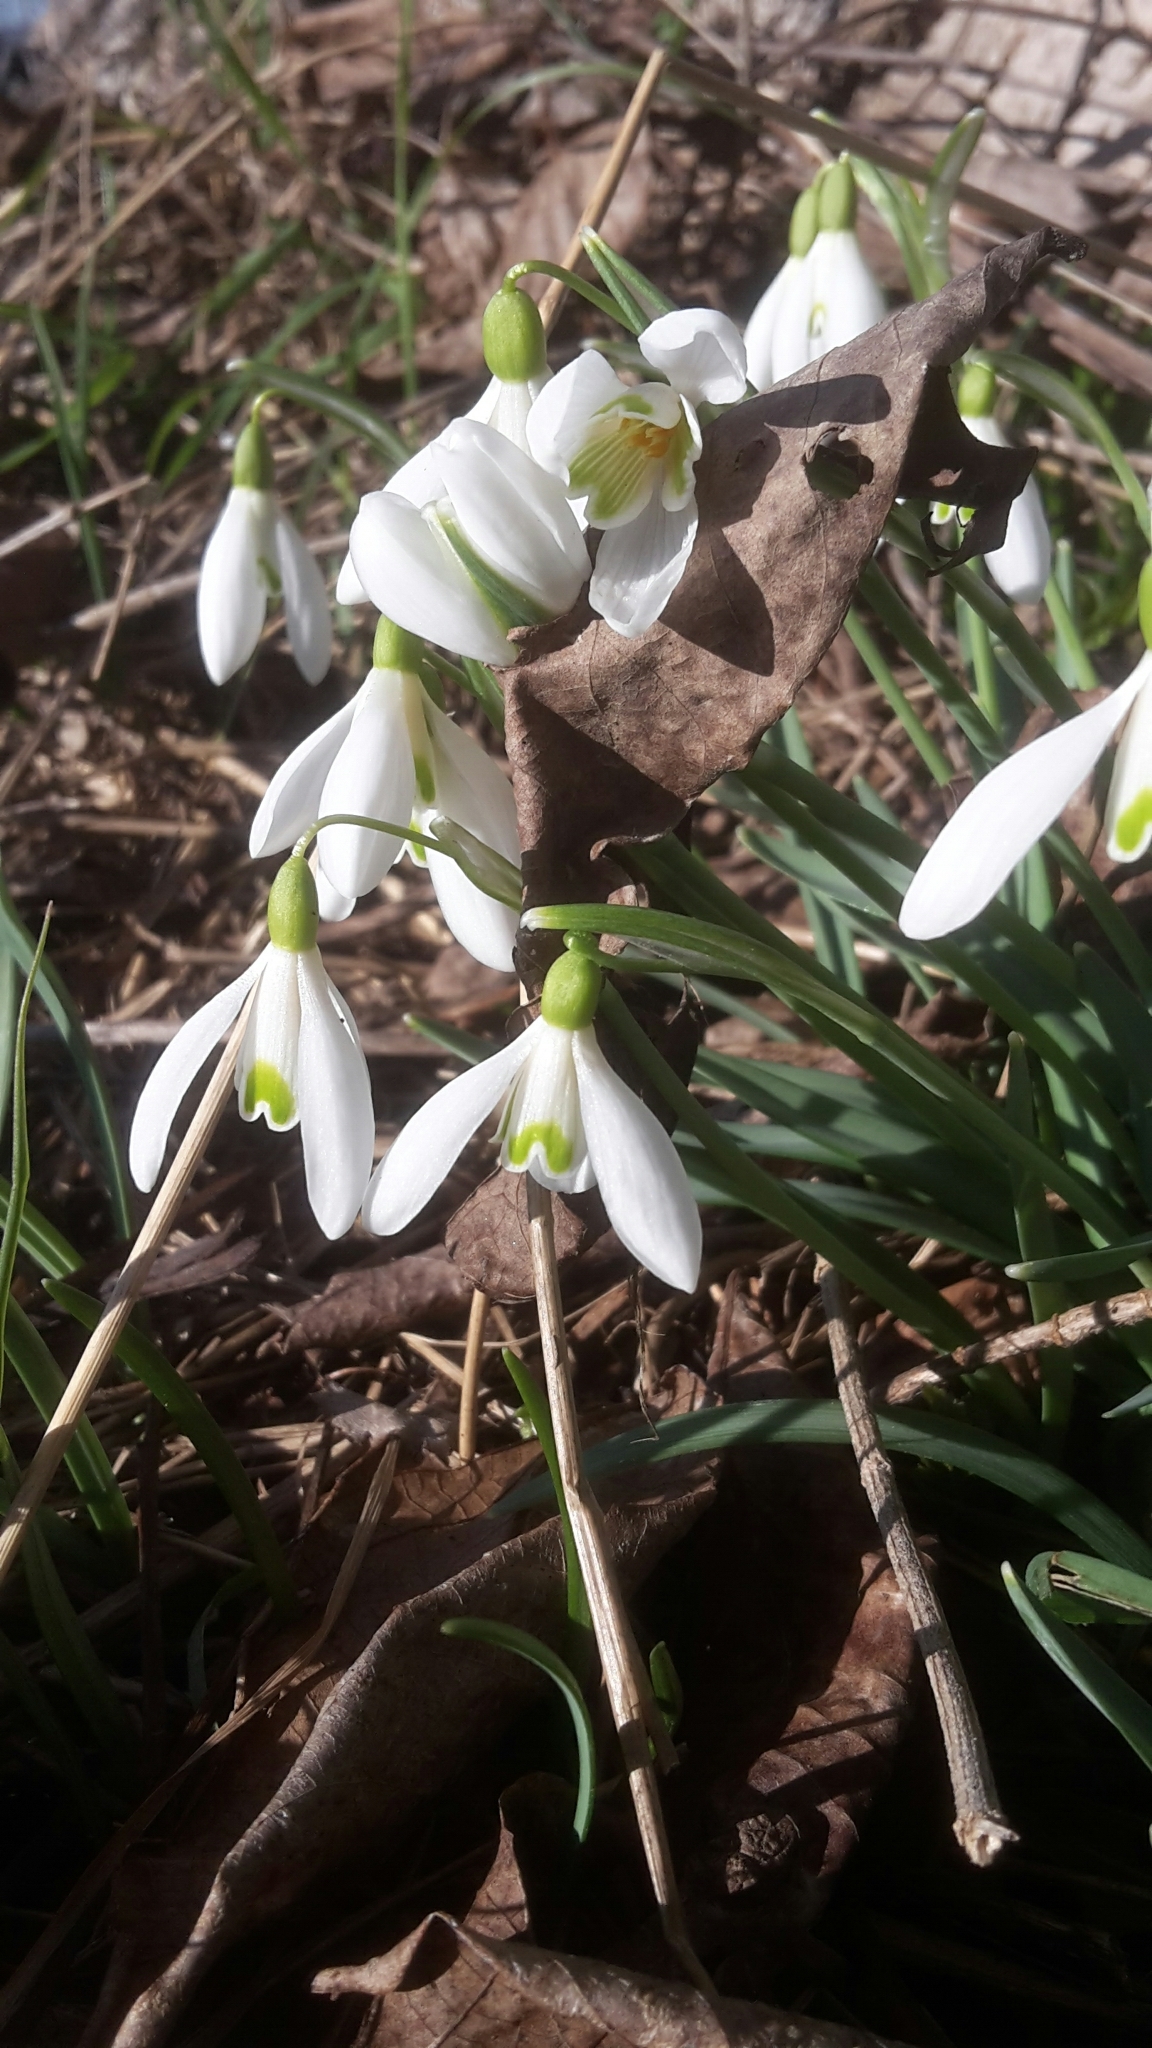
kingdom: Plantae
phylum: Tracheophyta
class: Liliopsida
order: Asparagales
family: Amaryllidaceae
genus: Galanthus
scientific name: Galanthus nivalis
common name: Snowdrop
